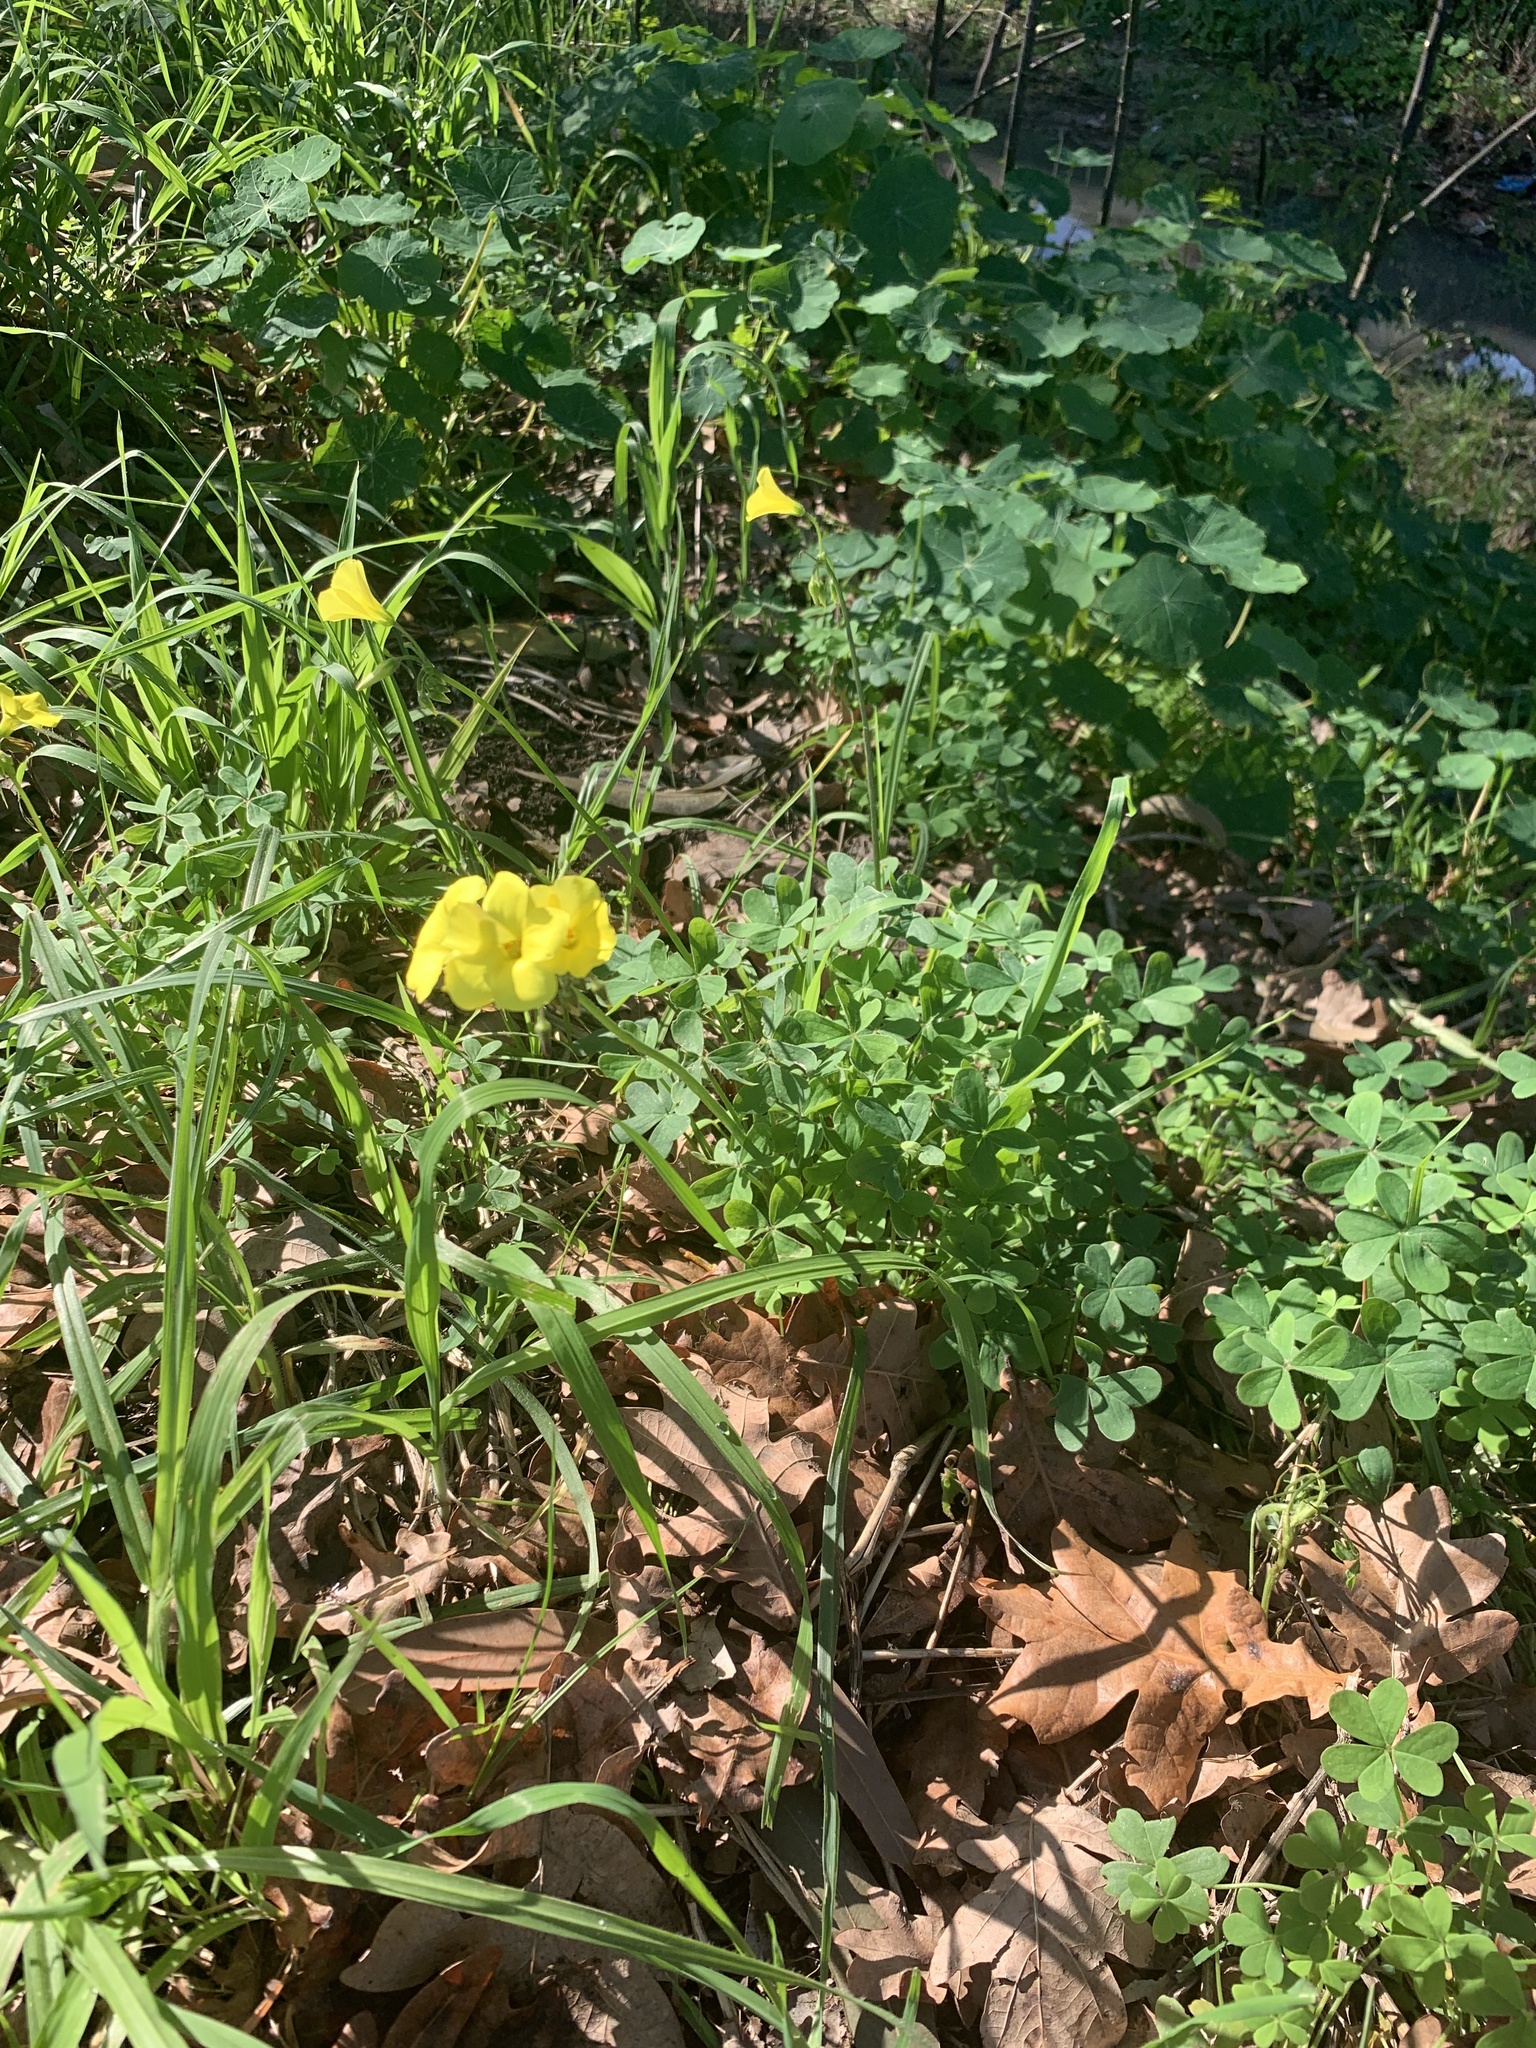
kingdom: Plantae
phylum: Tracheophyta
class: Magnoliopsida
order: Oxalidales
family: Oxalidaceae
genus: Oxalis
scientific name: Oxalis pes-caprae
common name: Bermuda-buttercup
